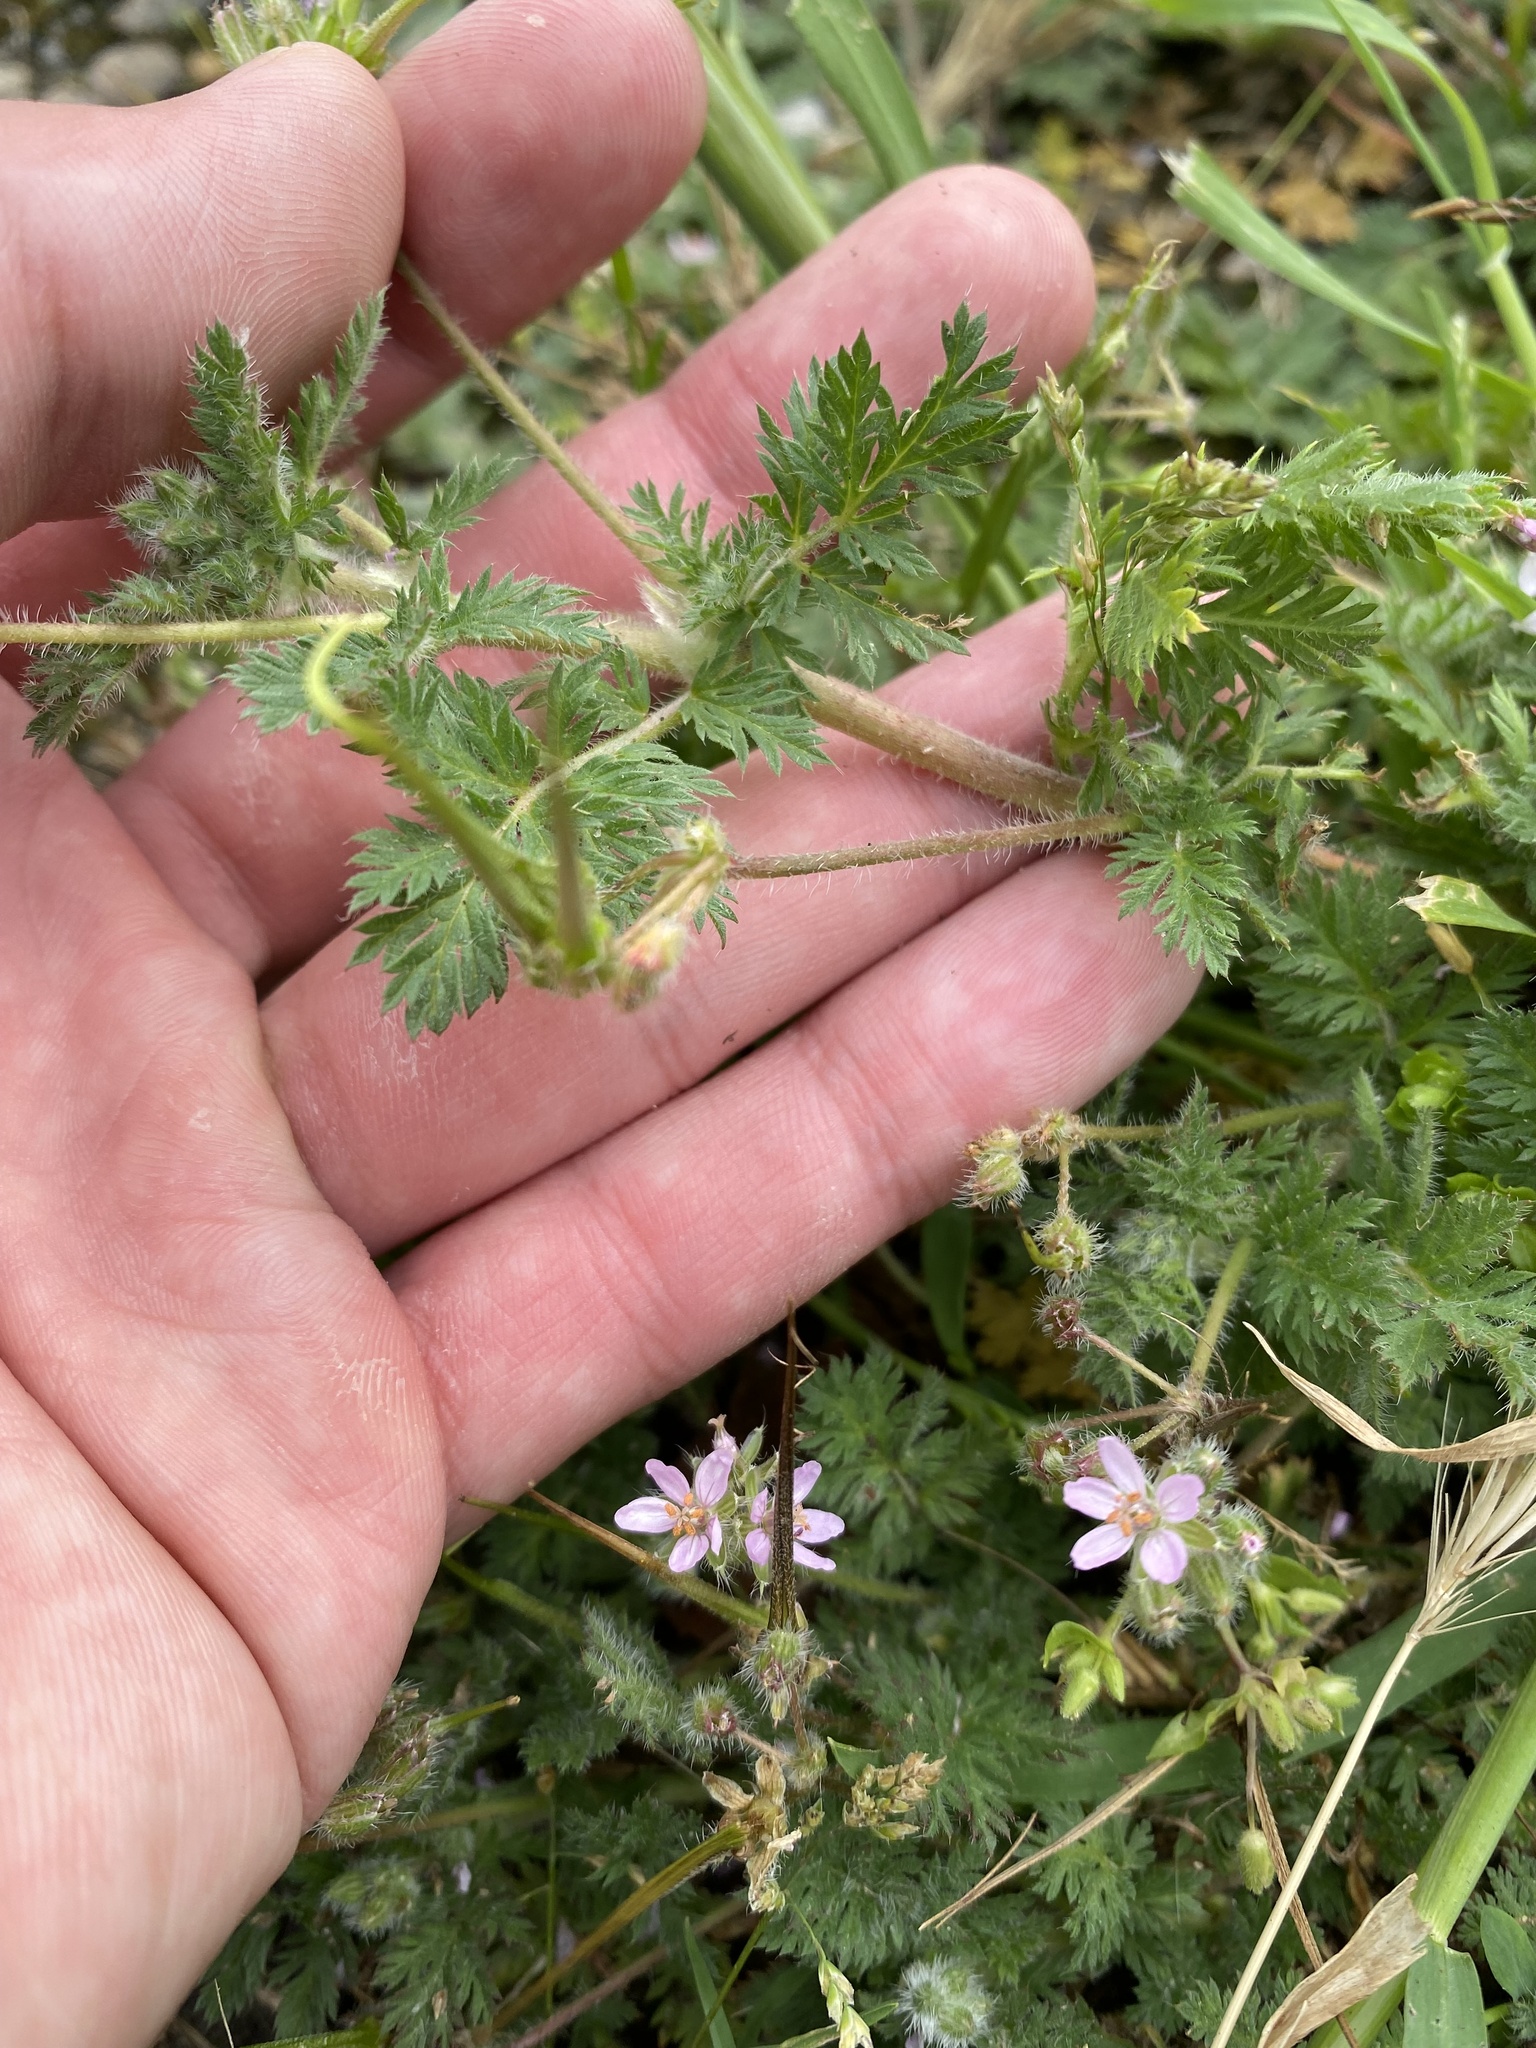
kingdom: Plantae
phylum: Tracheophyta
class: Magnoliopsida
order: Geraniales
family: Geraniaceae
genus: Erodium
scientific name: Erodium cicutarium
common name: Common stork's-bill
